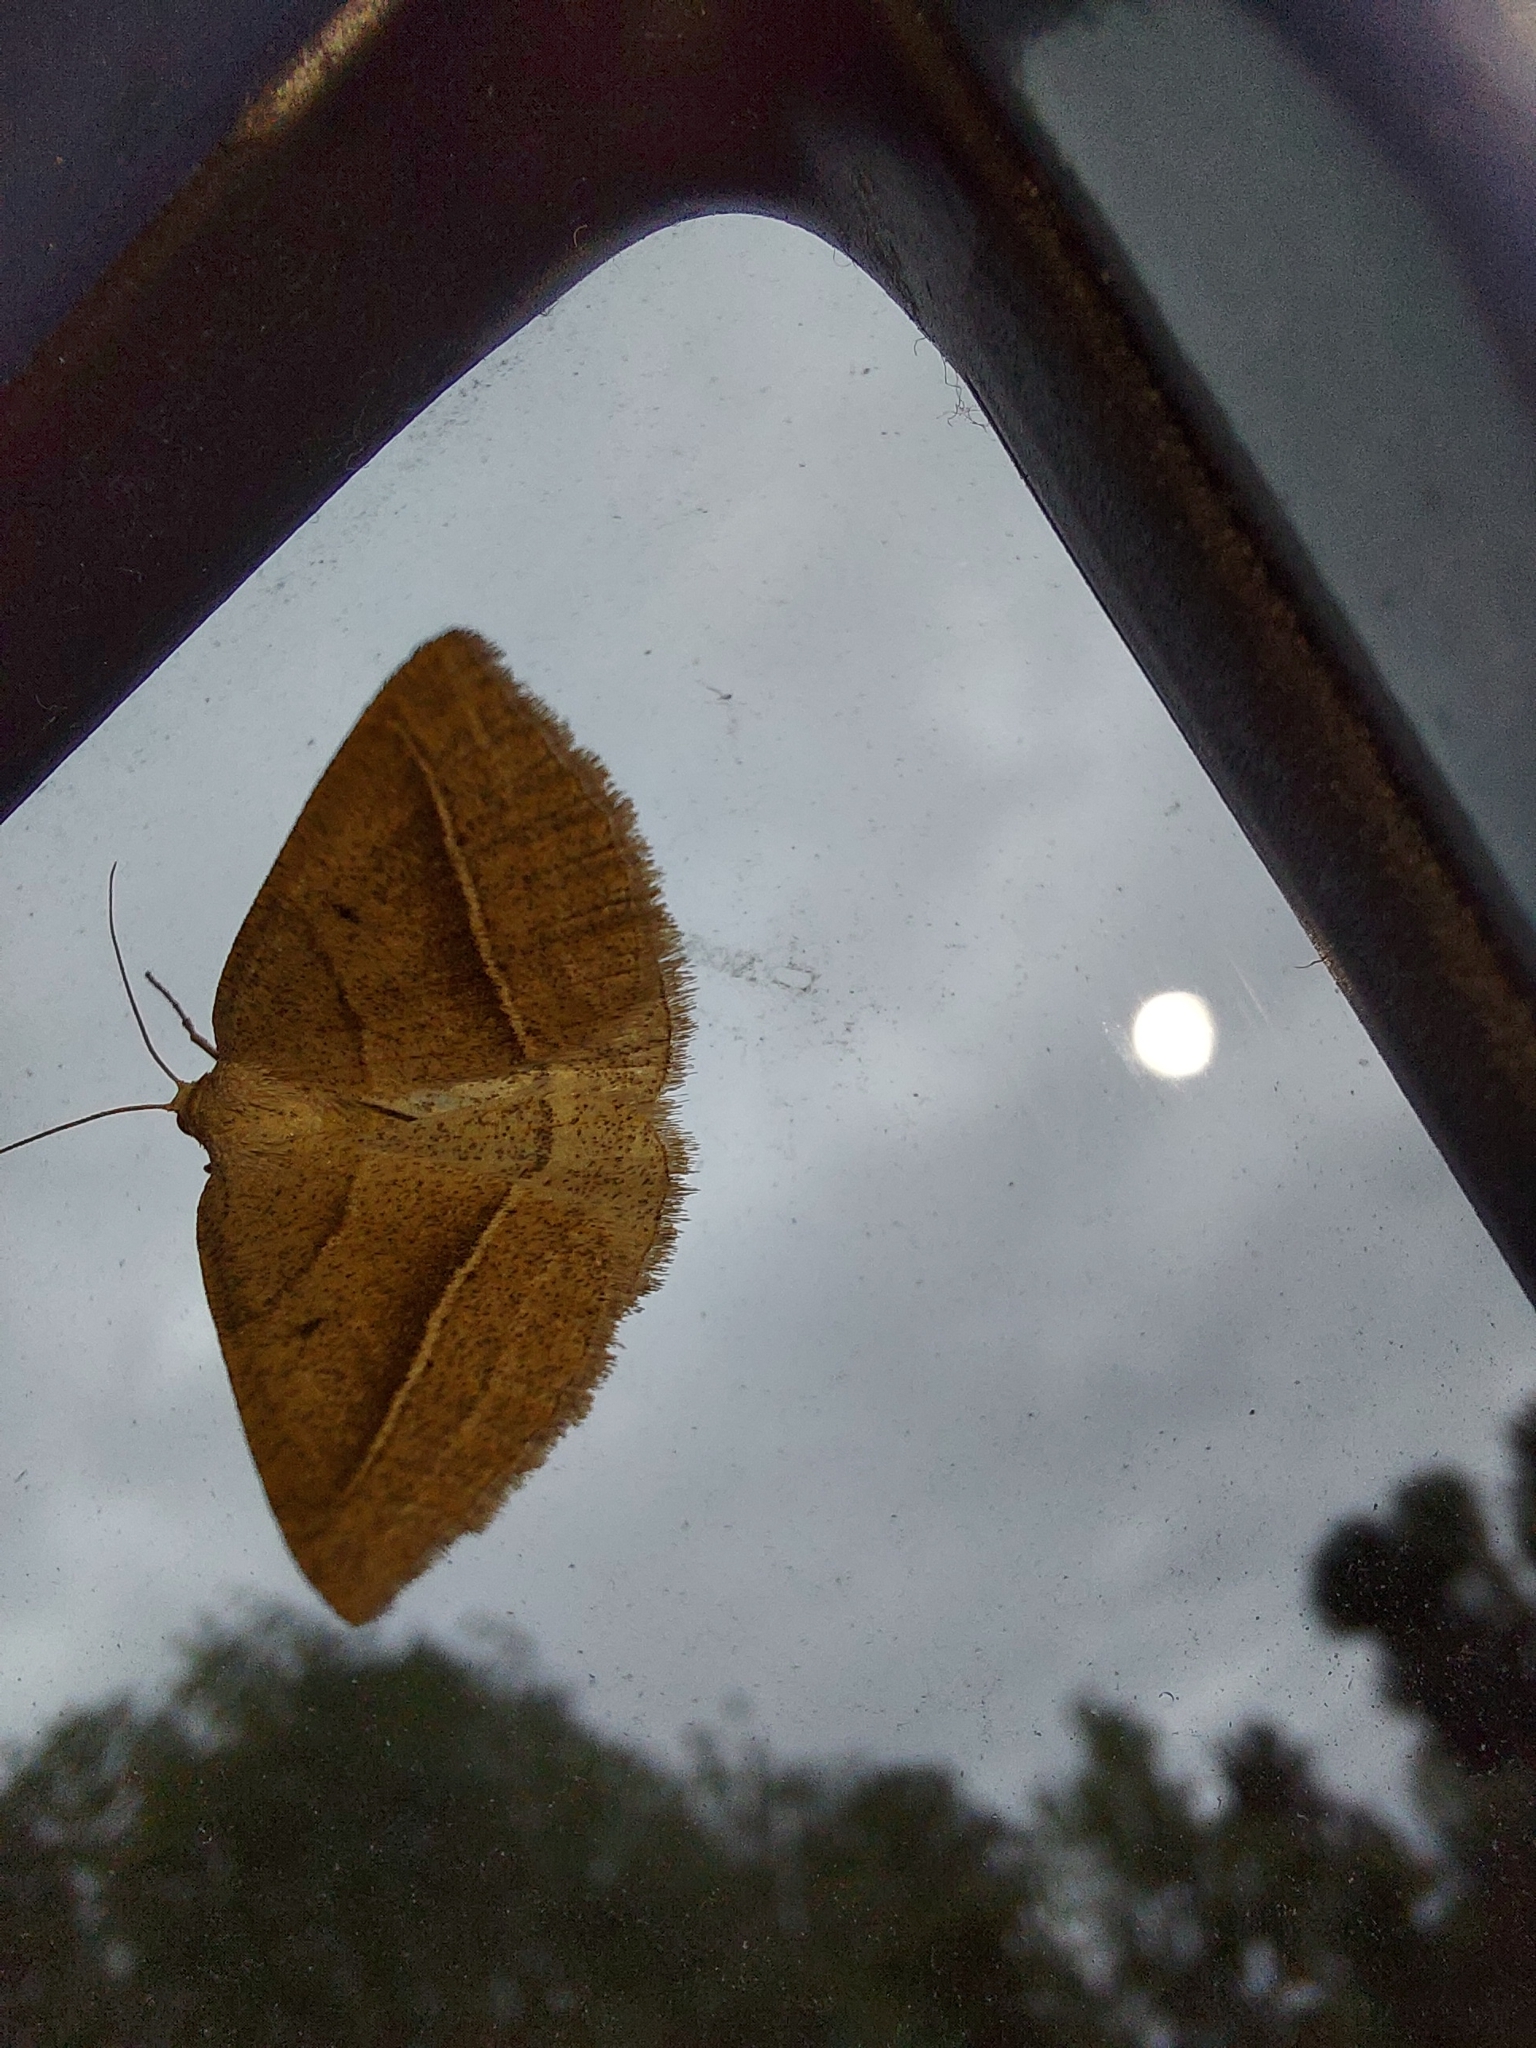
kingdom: Animalia
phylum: Arthropoda
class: Insecta
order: Lepidoptera
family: Pterophoridae
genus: Pterophorus
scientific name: Pterophorus Petrophora chlorosata
